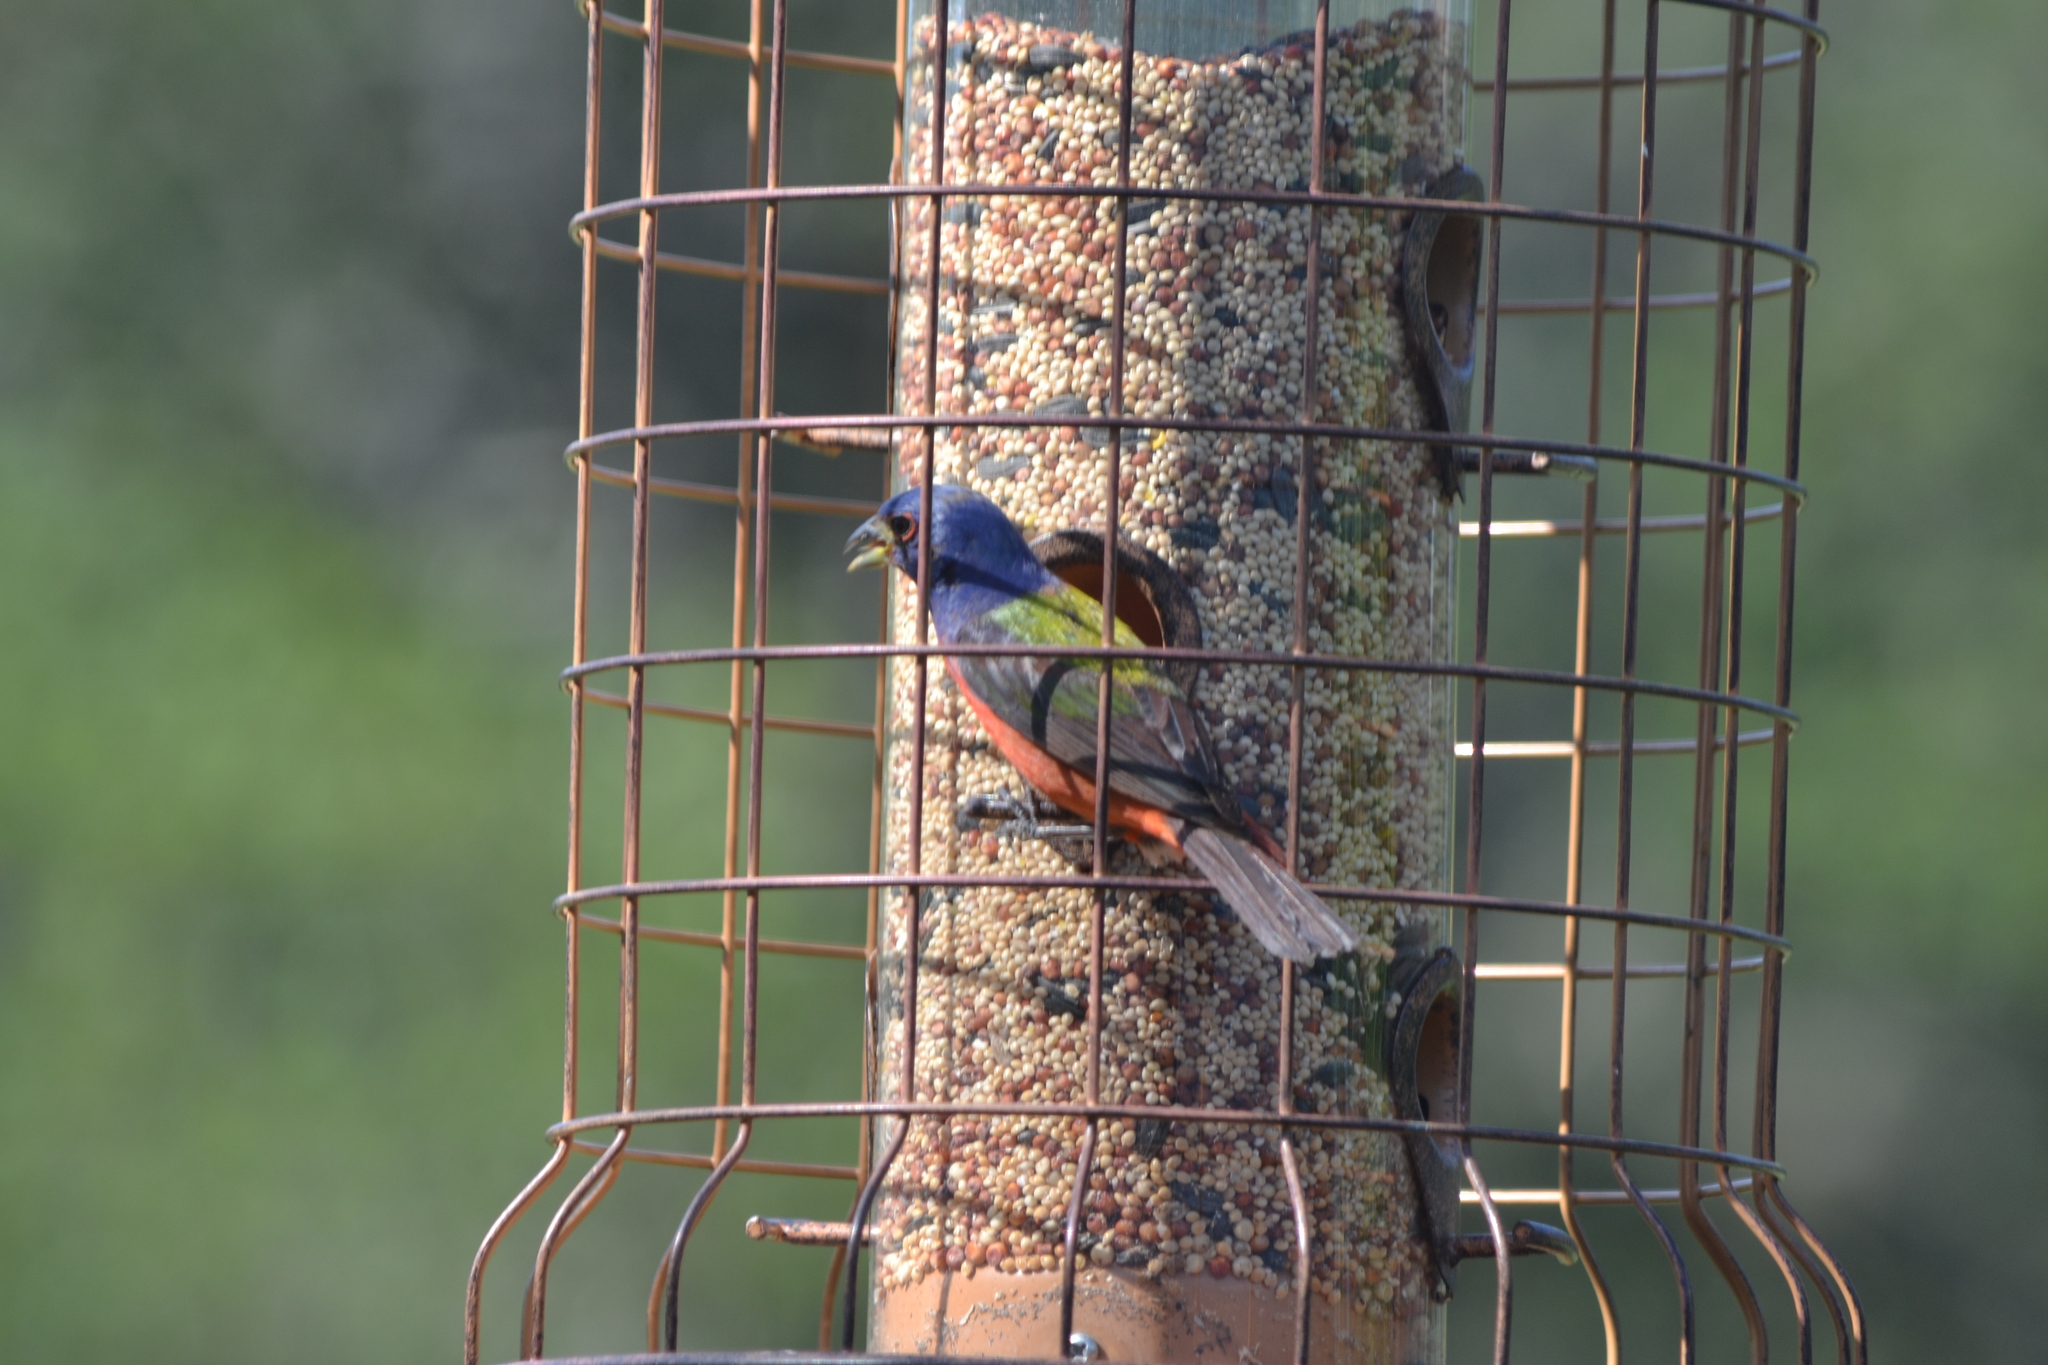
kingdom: Animalia
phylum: Chordata
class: Aves
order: Passeriformes
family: Cardinalidae
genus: Passerina
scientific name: Passerina ciris
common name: Painted bunting
